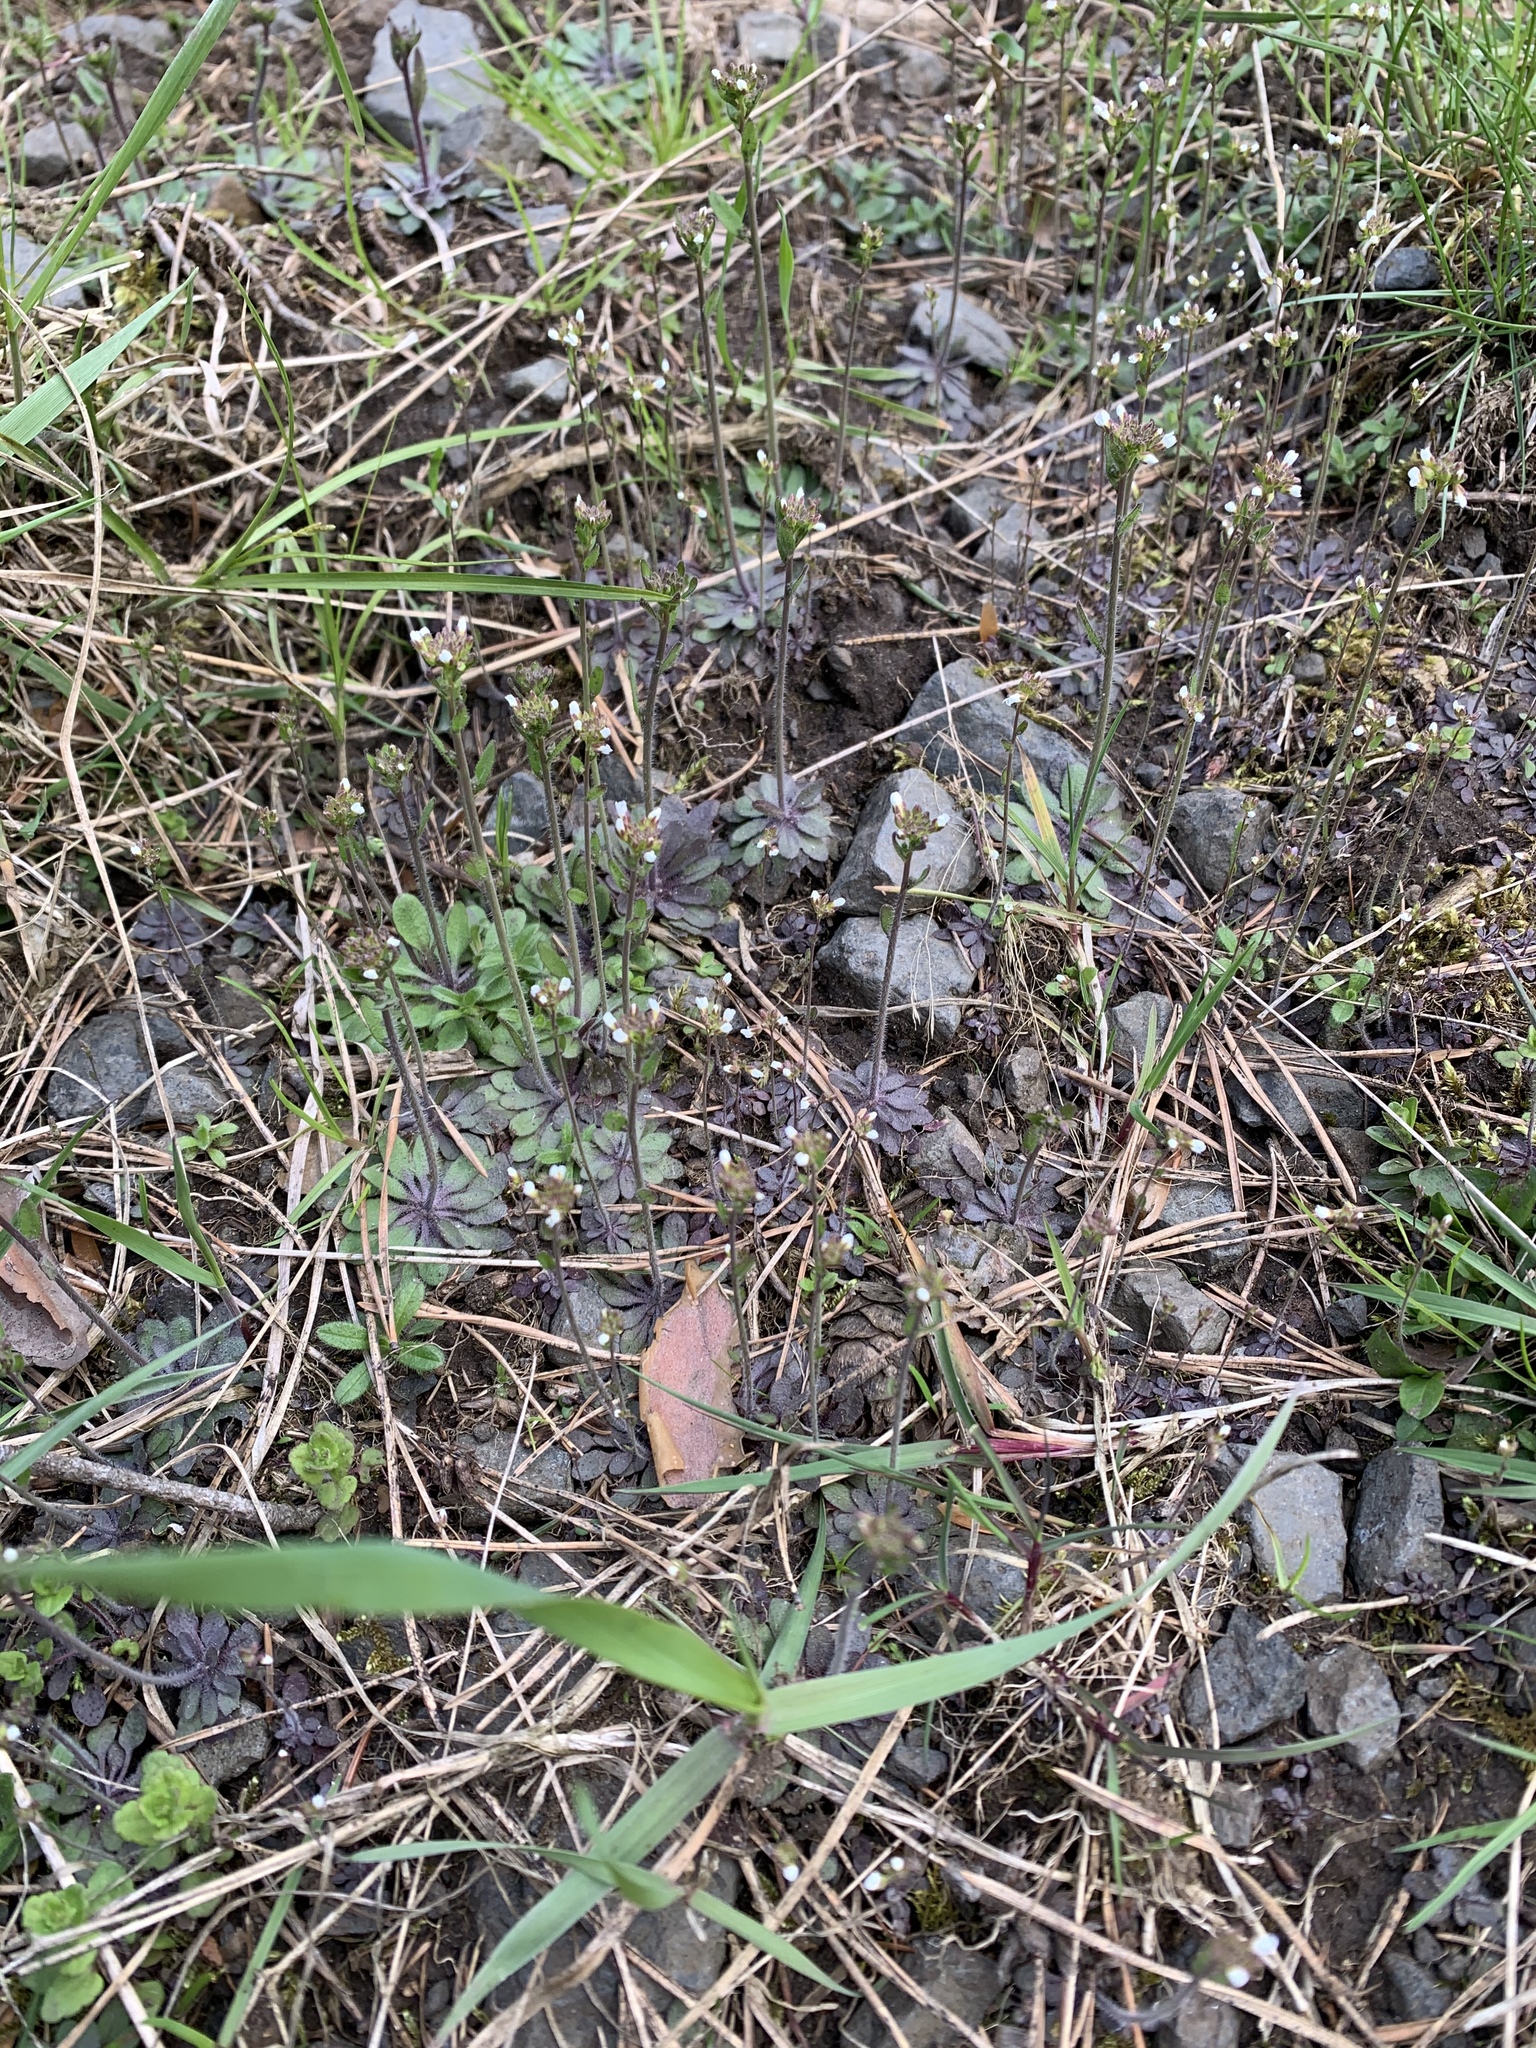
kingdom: Plantae
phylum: Tracheophyta
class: Magnoliopsida
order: Brassicales
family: Brassicaceae
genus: Arabidopsis
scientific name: Arabidopsis thaliana
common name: Thale cress
